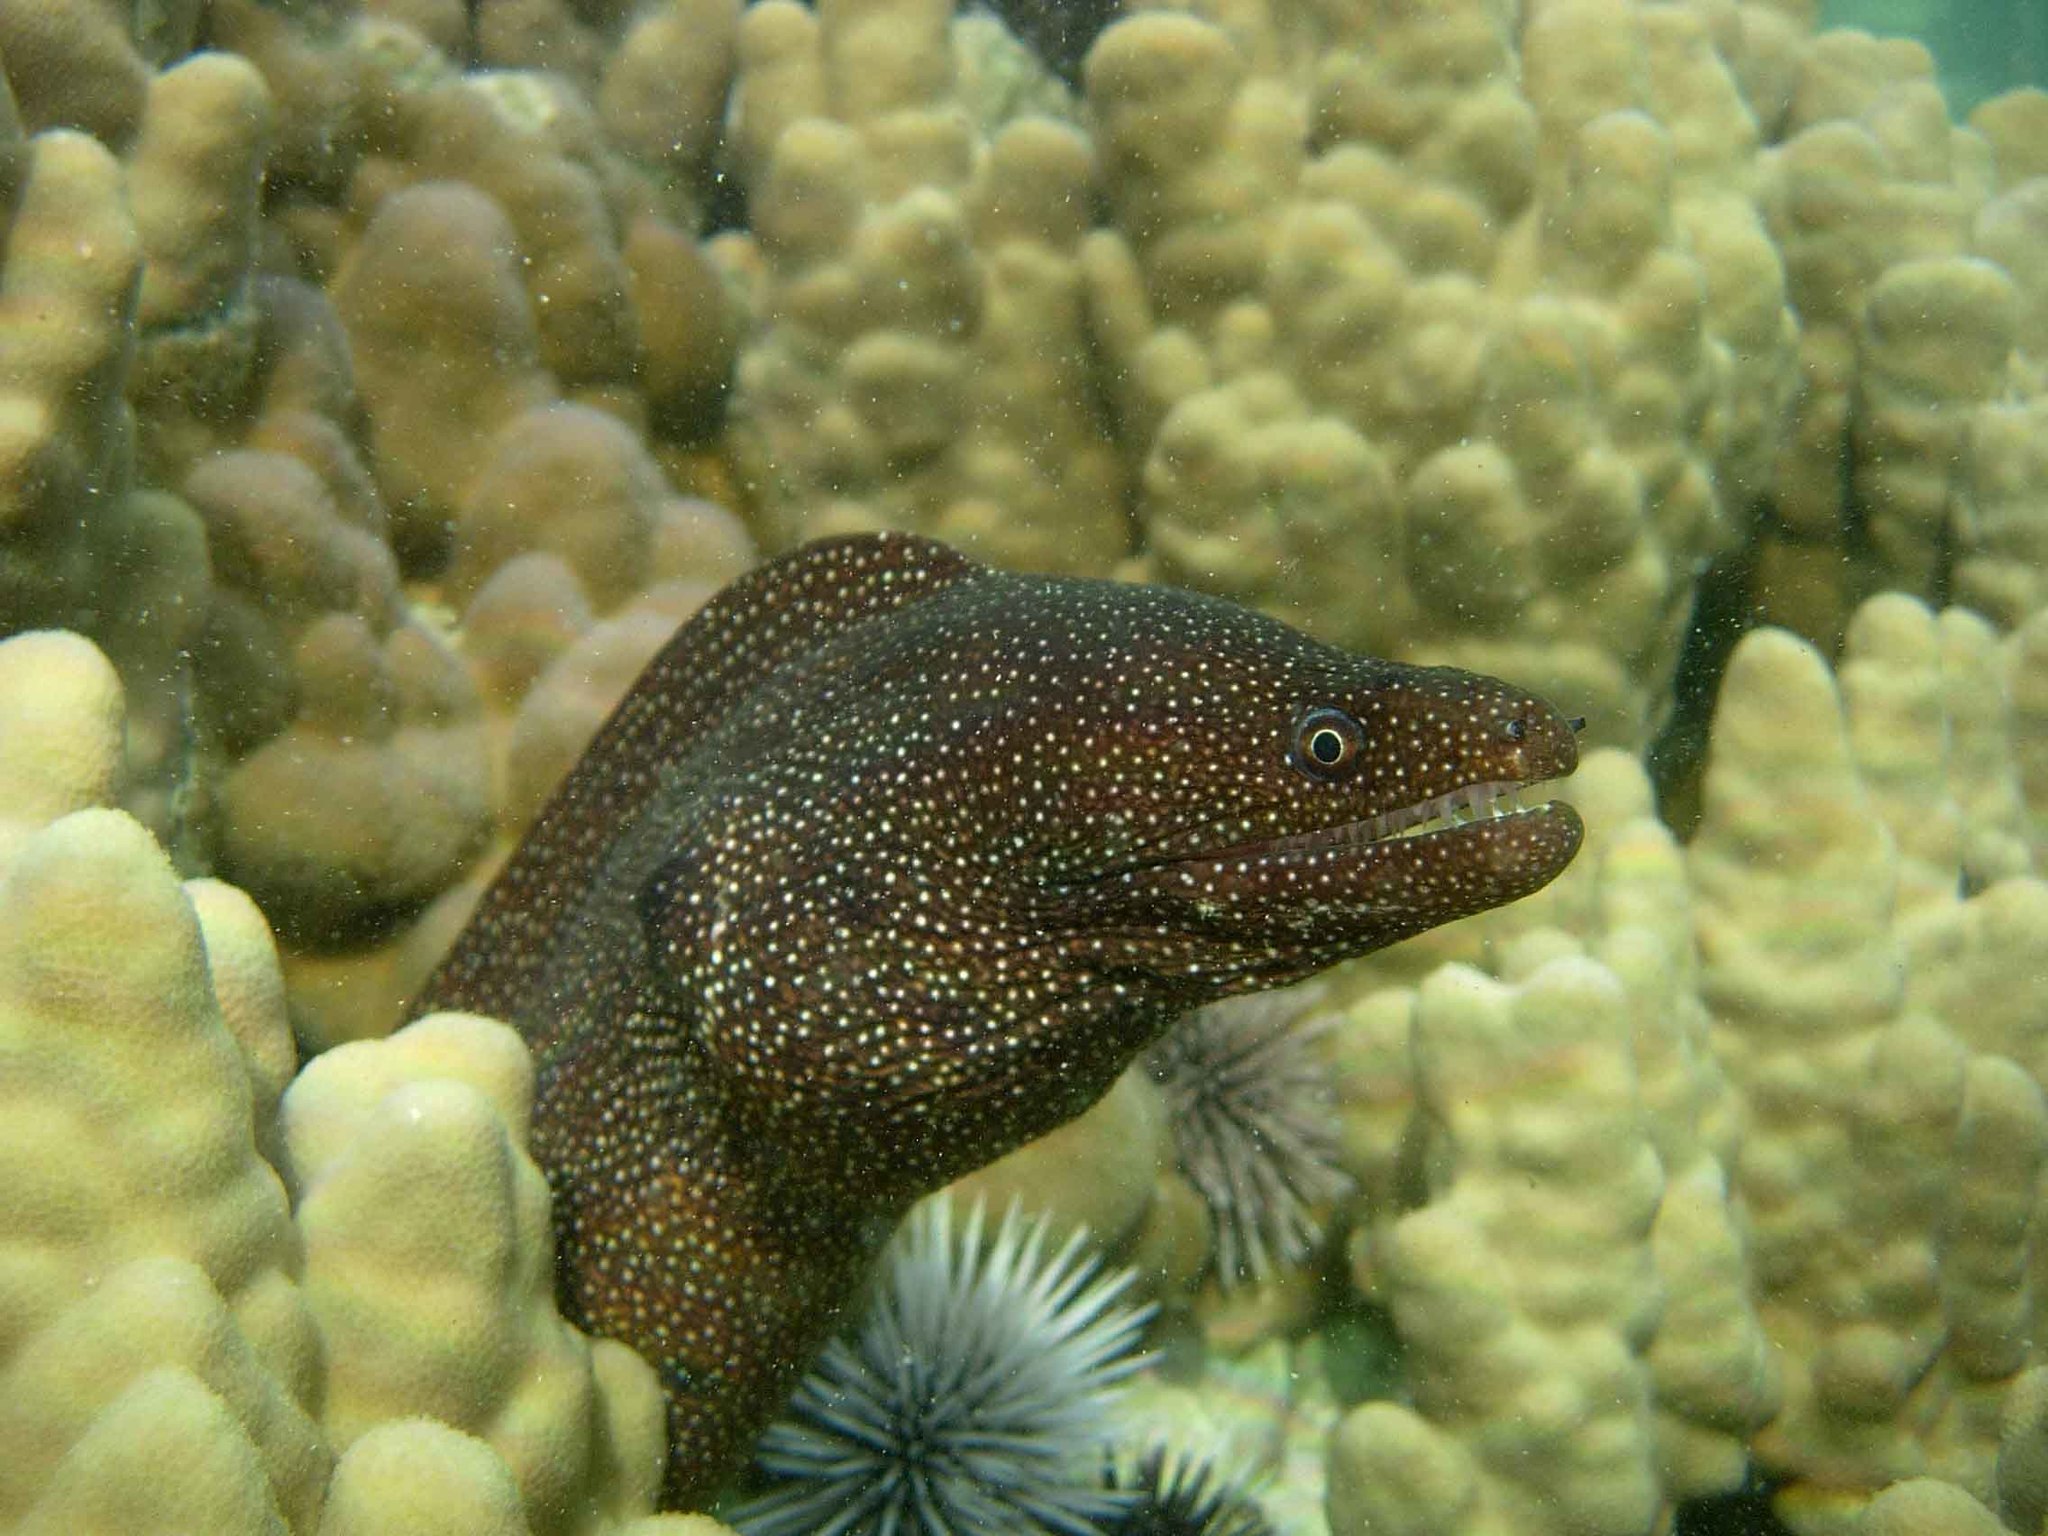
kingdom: Animalia
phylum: Chordata
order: Anguilliformes
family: Muraenidae
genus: Gymnothorax
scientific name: Gymnothorax meleagris
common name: Guineafowl moray
